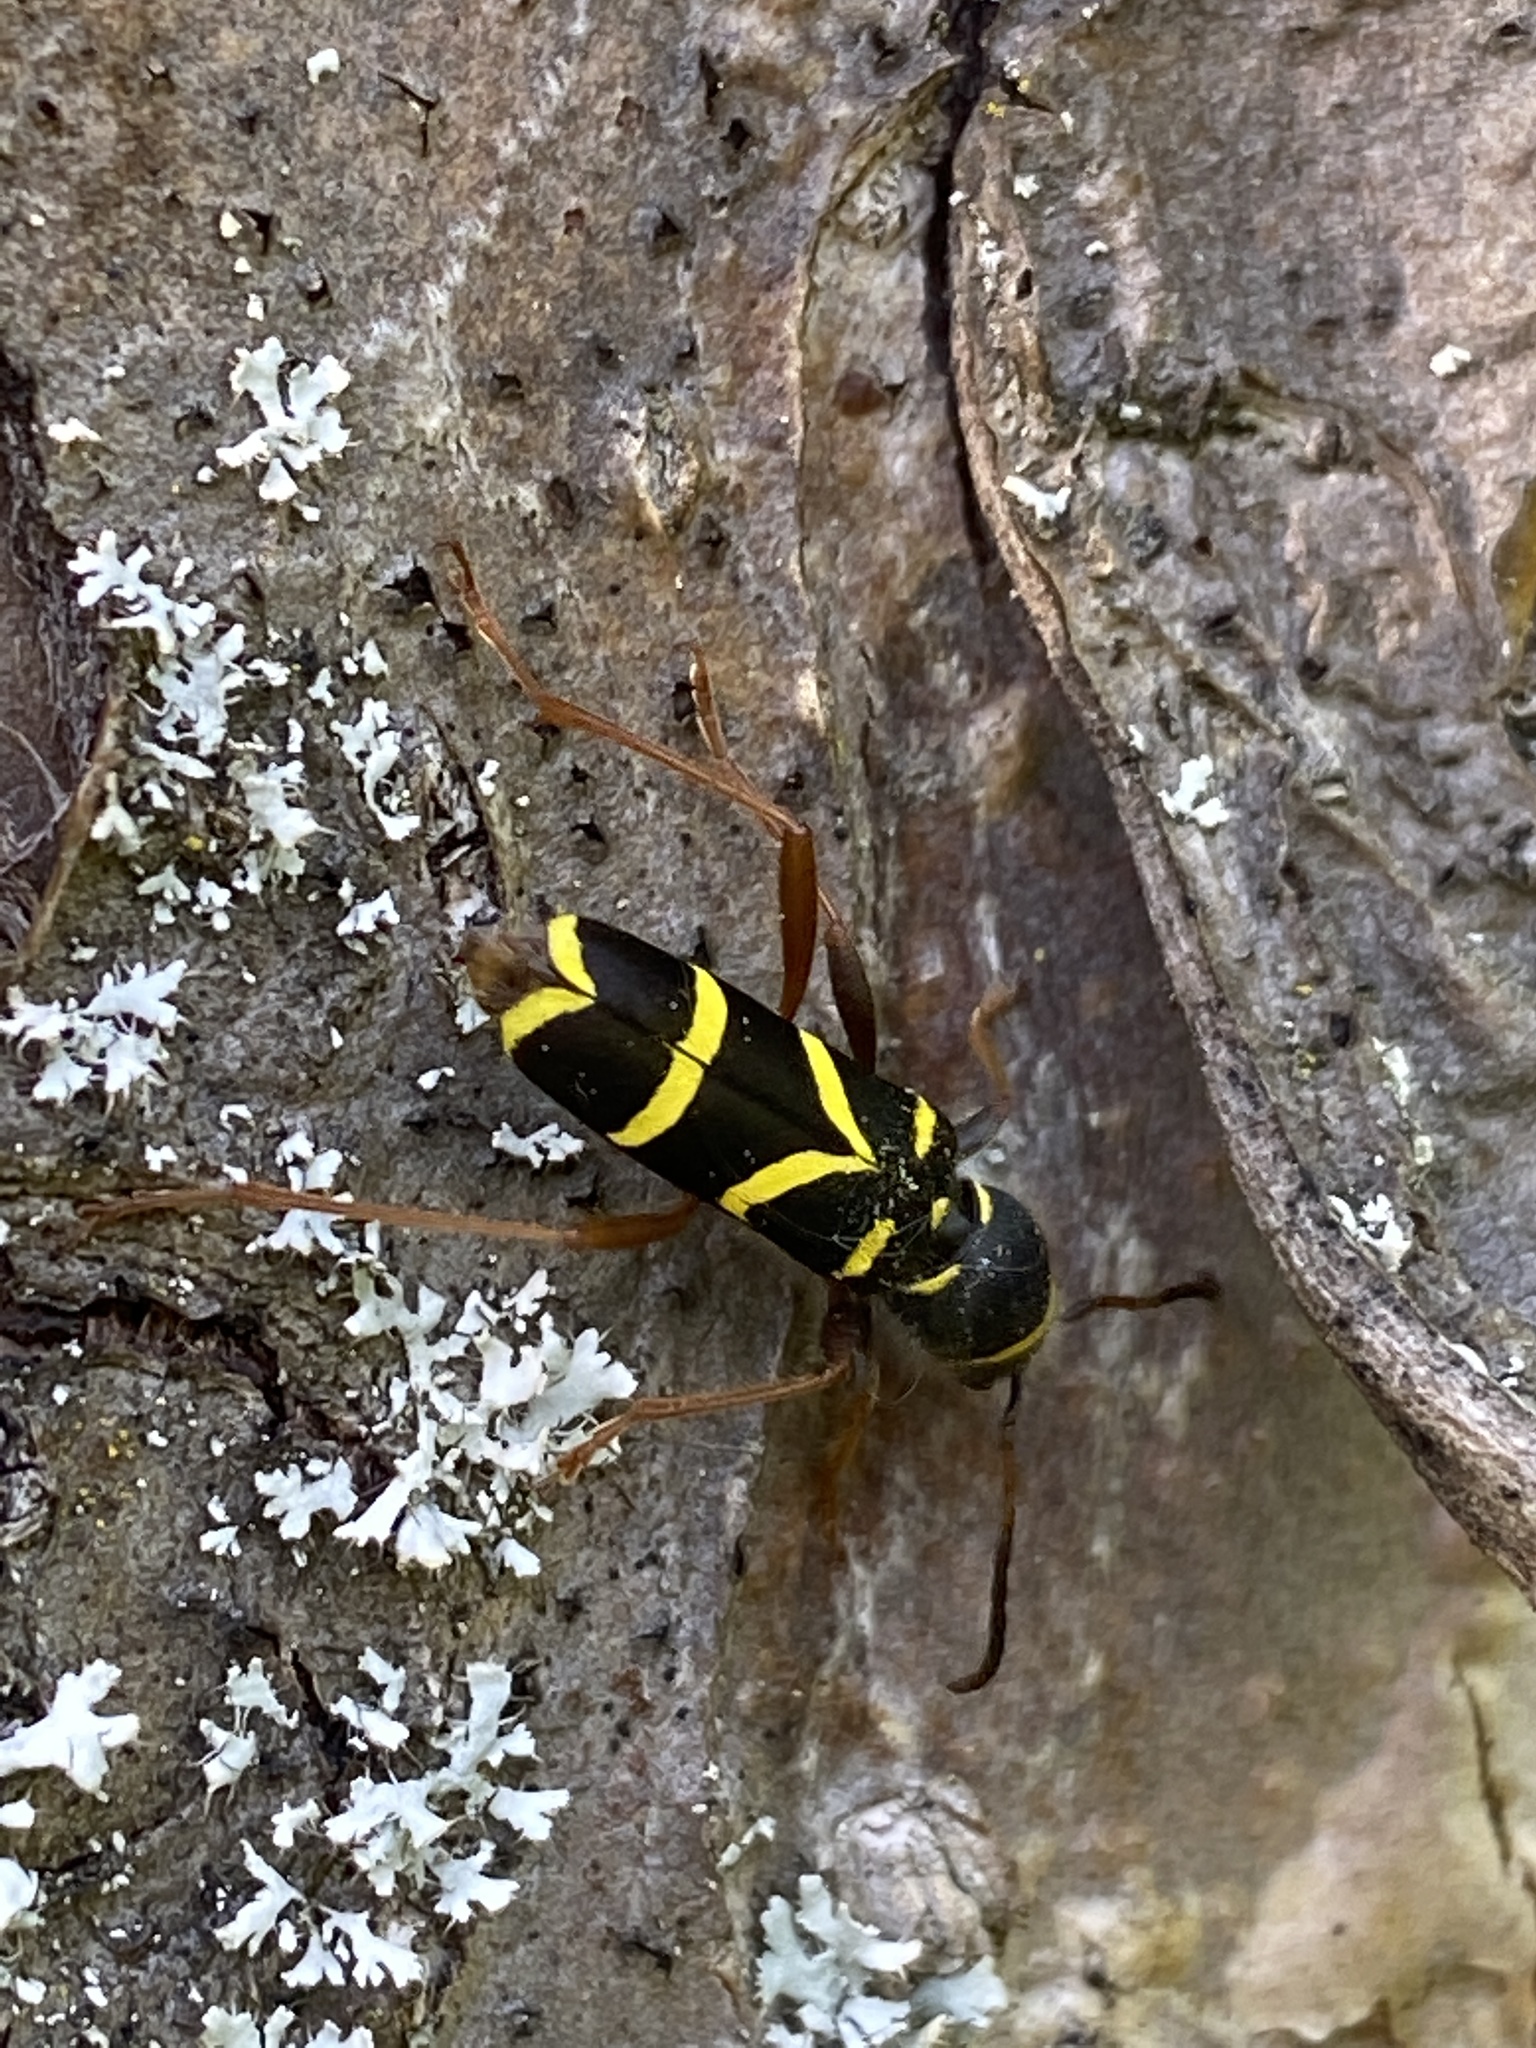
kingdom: Animalia
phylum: Arthropoda
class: Insecta
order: Coleoptera
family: Cerambycidae
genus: Clytus
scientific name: Clytus arietis
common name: Wasp beetle
